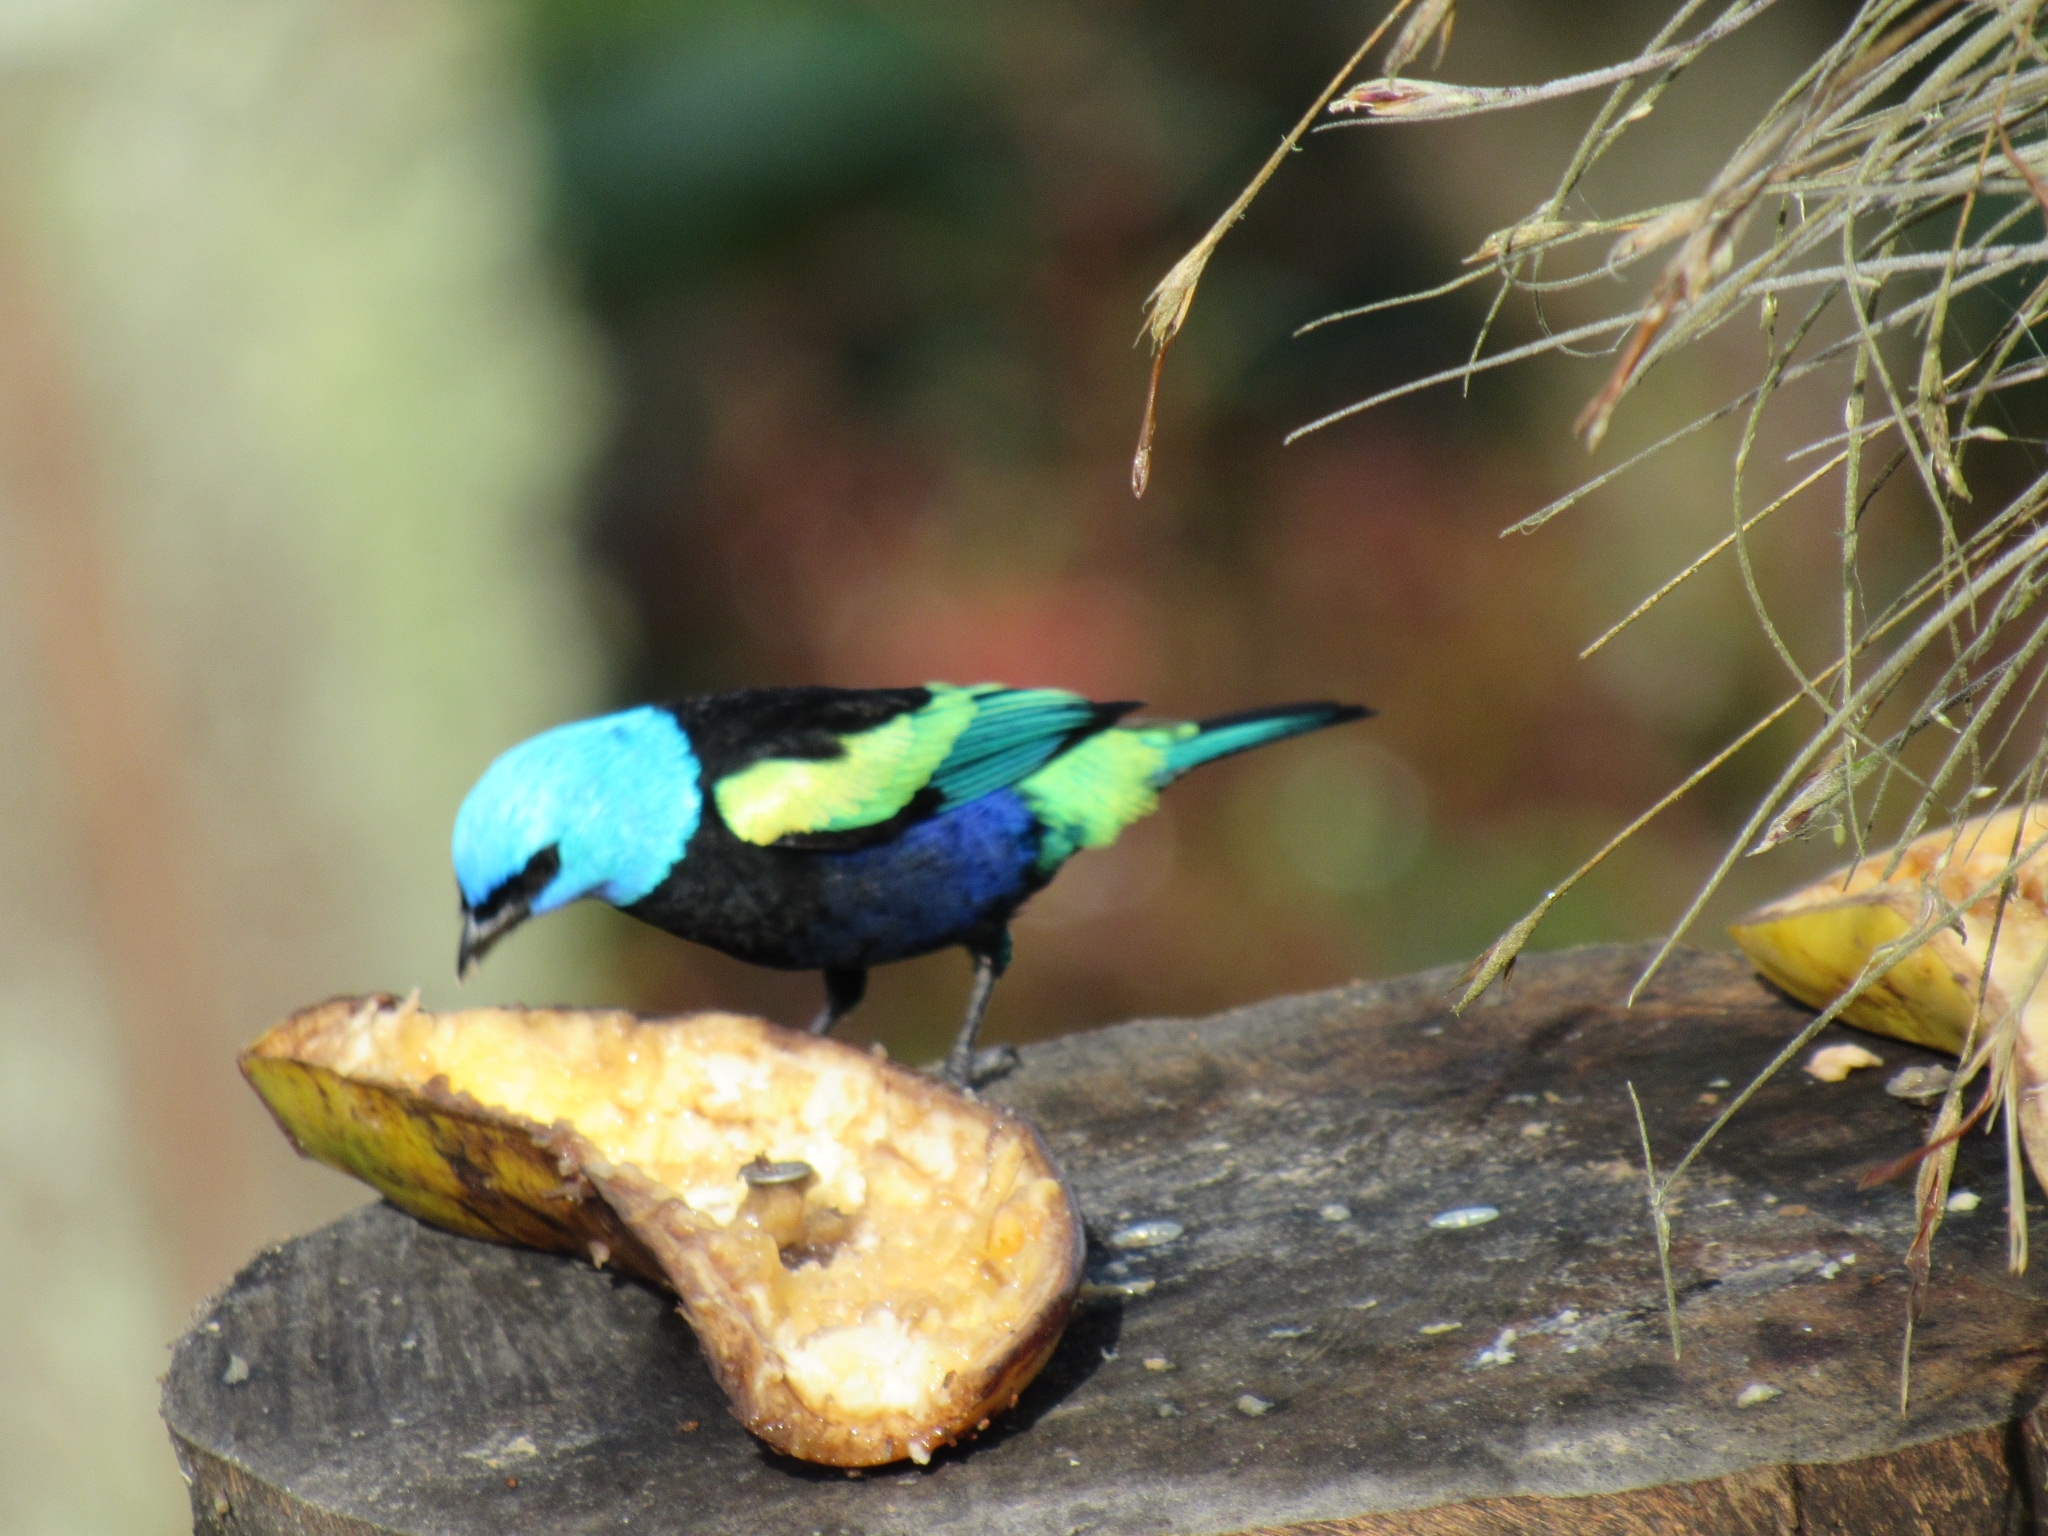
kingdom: Animalia
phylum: Chordata
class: Aves
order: Passeriformes
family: Thraupidae
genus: Stilpnia
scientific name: Stilpnia cyanicollis
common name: Blue-necked tanager
